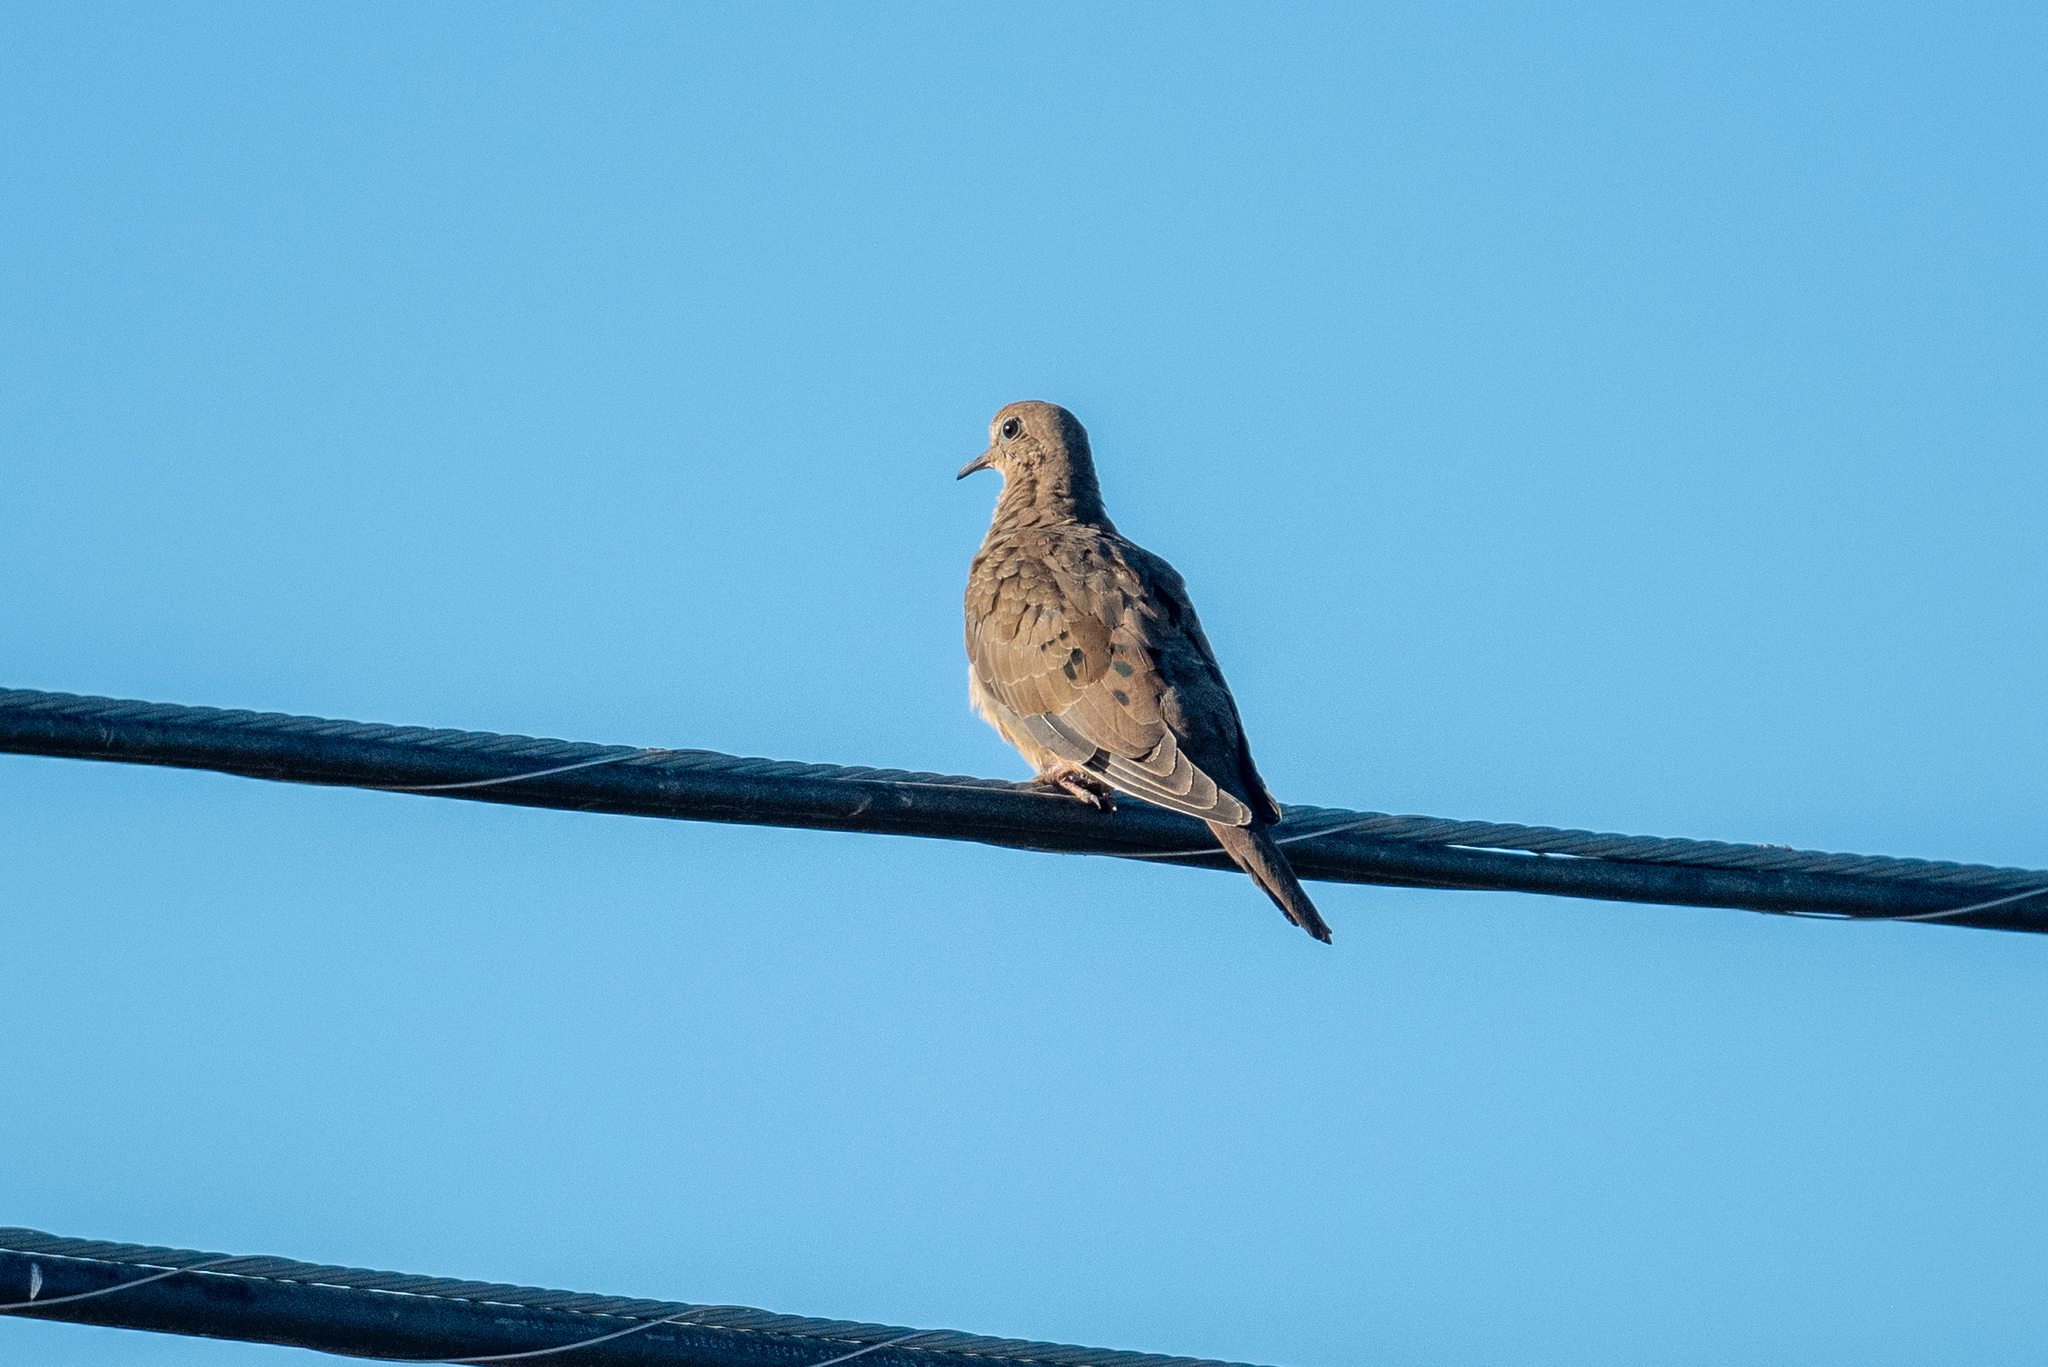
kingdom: Animalia
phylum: Chordata
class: Aves
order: Columbiformes
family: Columbidae
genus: Zenaida
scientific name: Zenaida macroura
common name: Mourning dove
